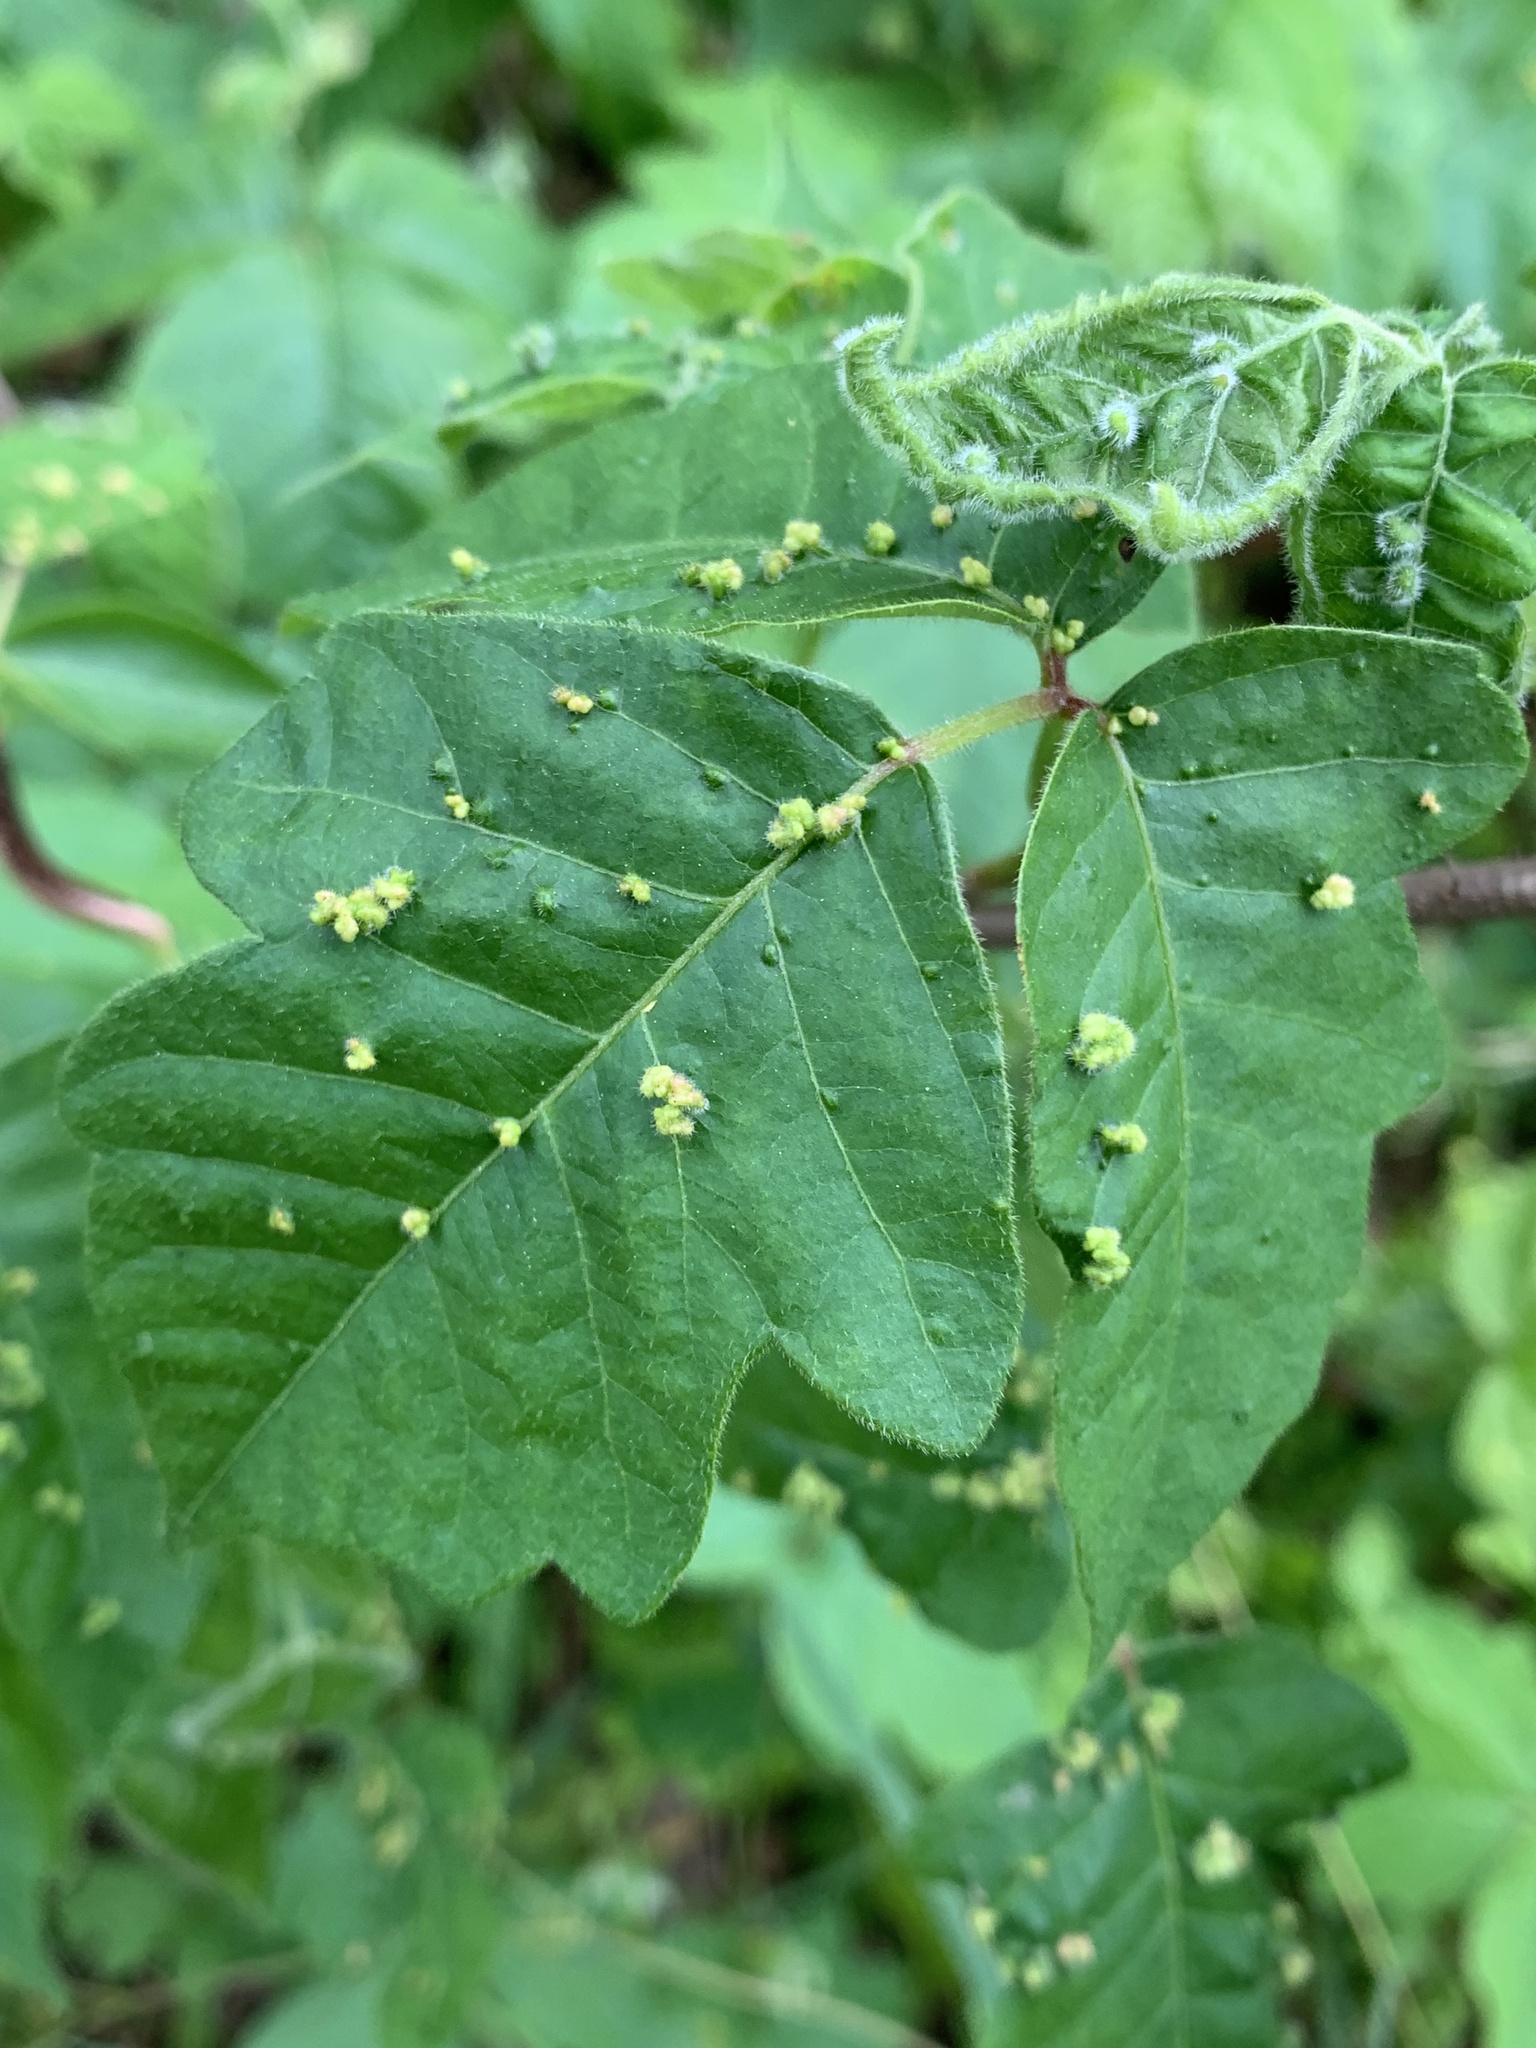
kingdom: Animalia
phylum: Arthropoda
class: Arachnida
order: Trombidiformes
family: Eriophyidae
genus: Aculops
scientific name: Aculops
